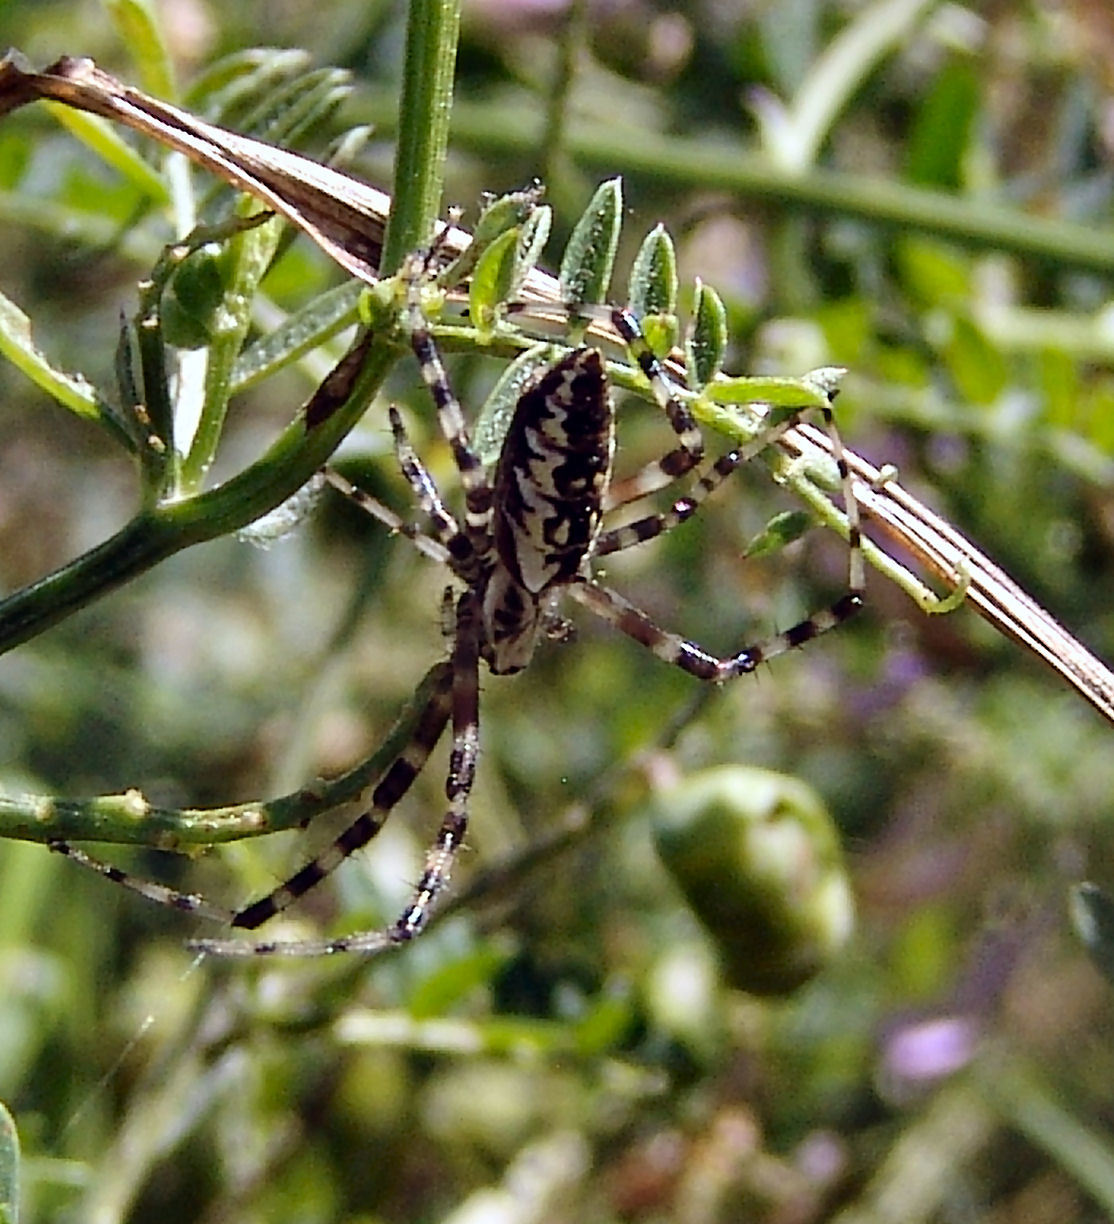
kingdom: Animalia
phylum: Arthropoda
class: Arachnida
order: Araneae
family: Araneidae
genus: Argiope
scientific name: Argiope aurantia
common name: Orb weavers
